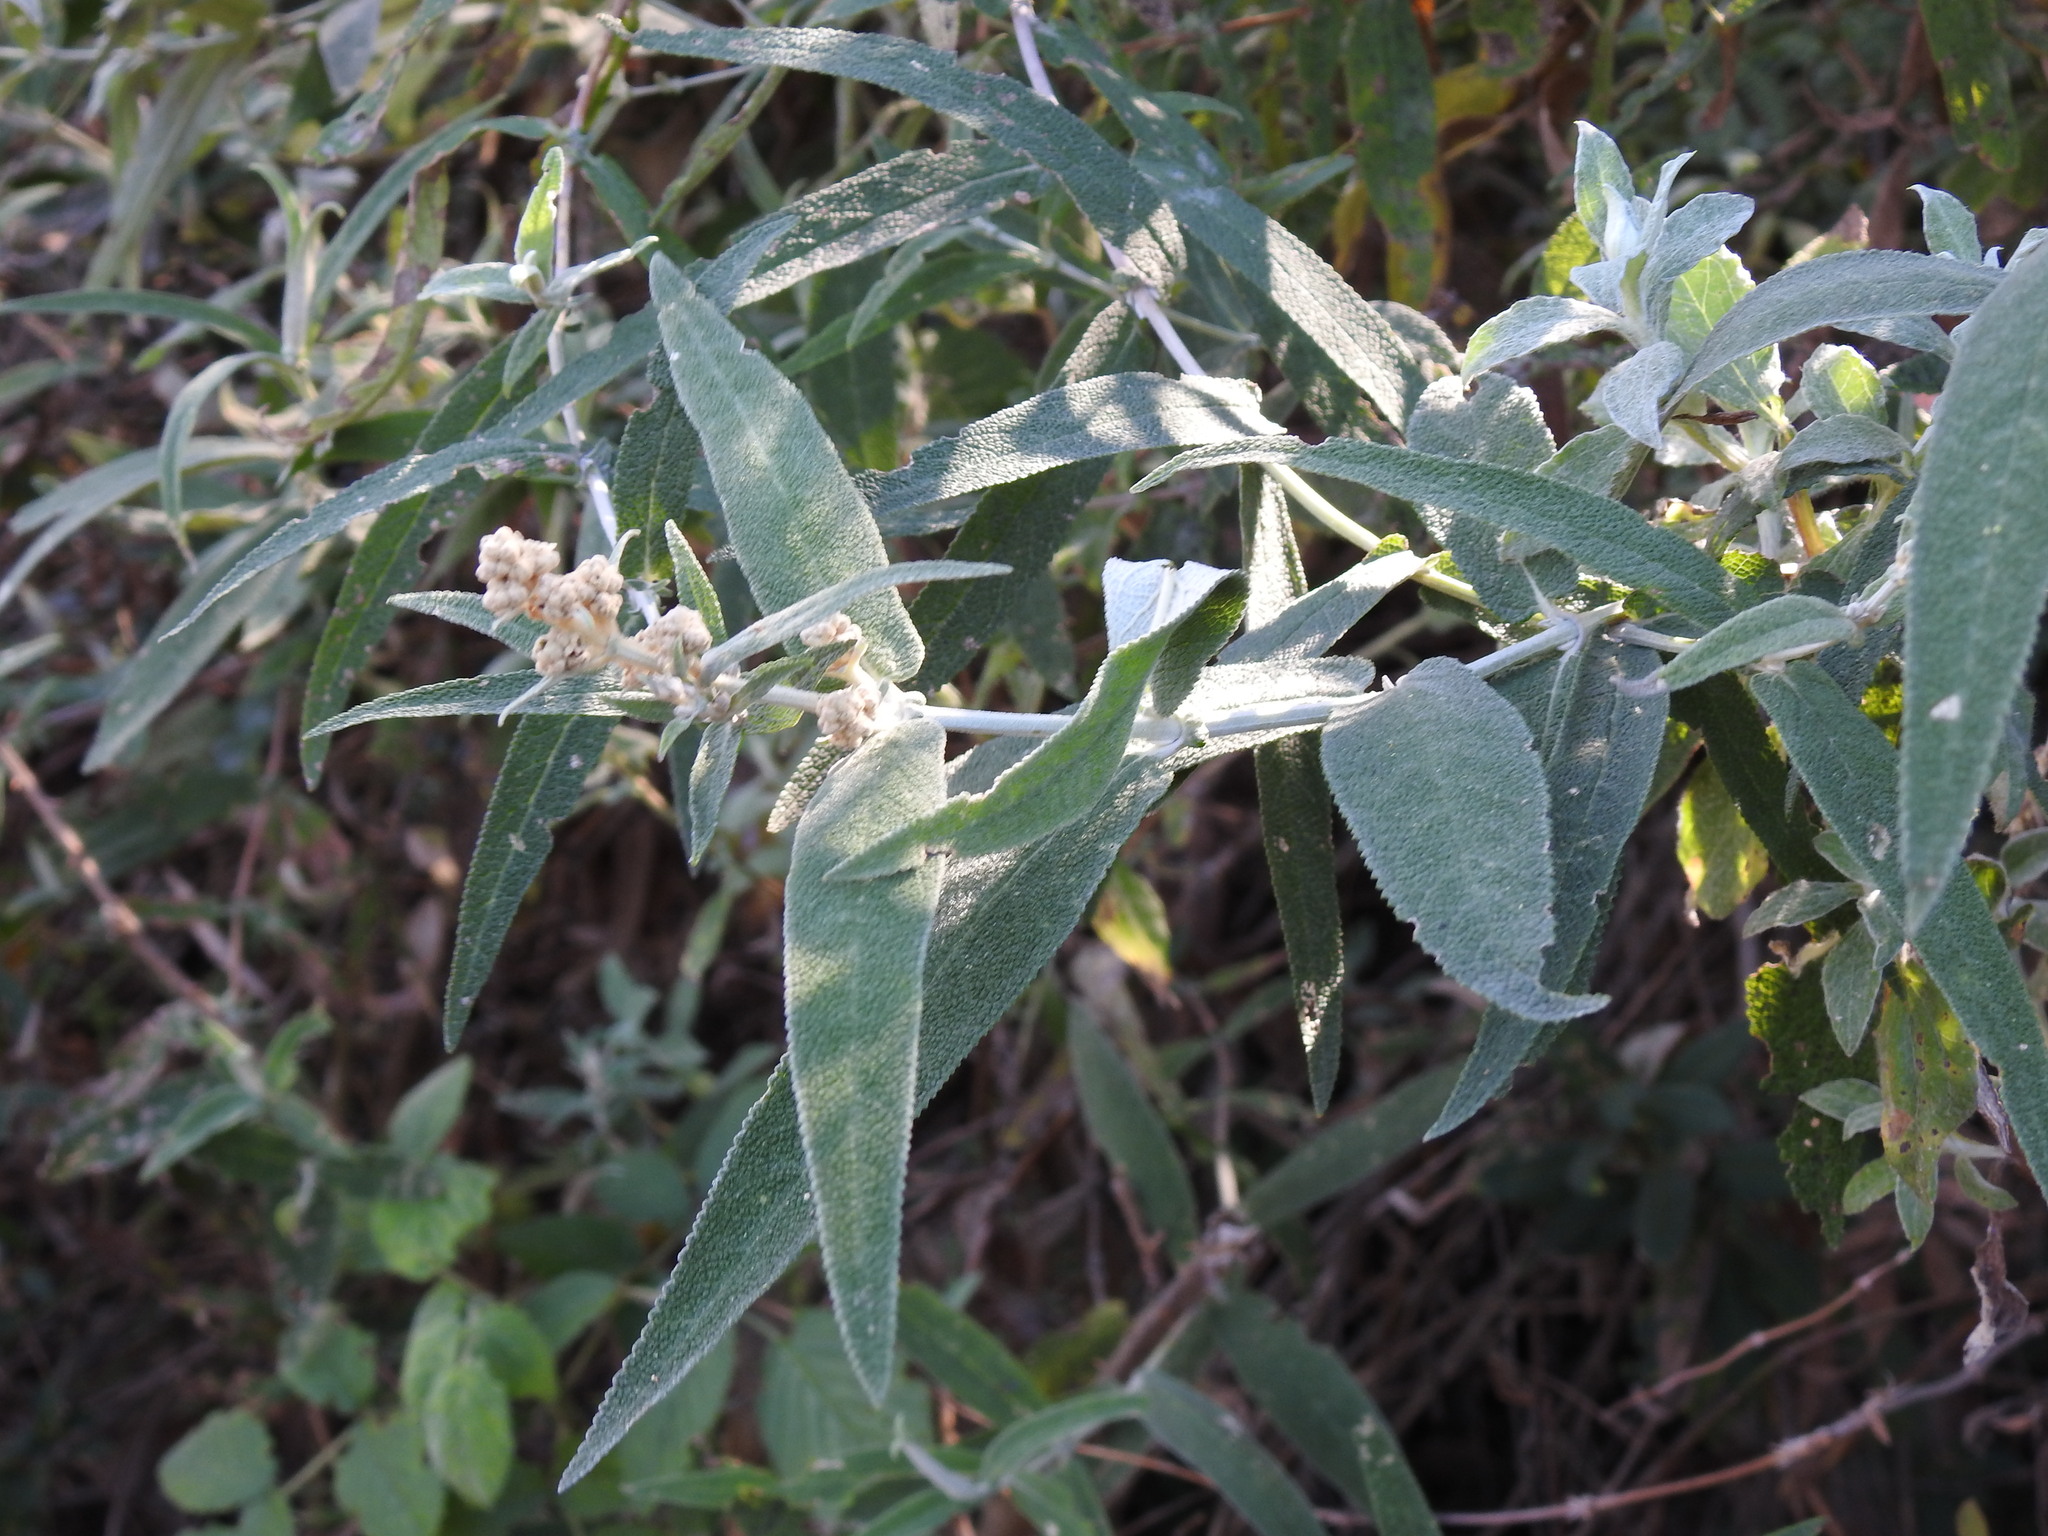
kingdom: Plantae
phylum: Tracheophyta
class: Magnoliopsida
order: Lamiales
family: Scrophulariaceae
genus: Buddleja
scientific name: Buddleja salviifolia
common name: Sagewood
